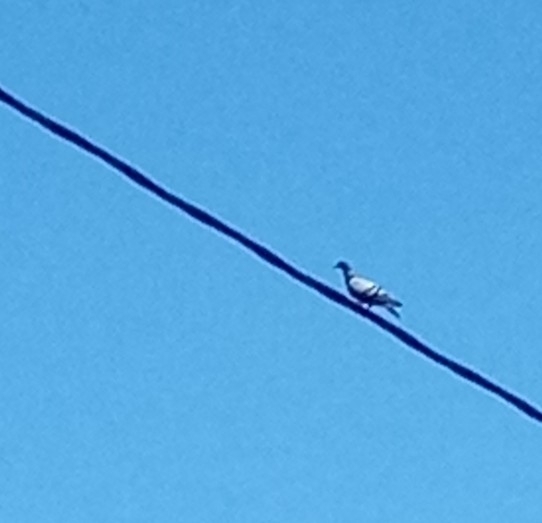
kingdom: Animalia
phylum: Chordata
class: Aves
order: Columbiformes
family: Columbidae
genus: Columba
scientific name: Columba livia
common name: Rock pigeon
